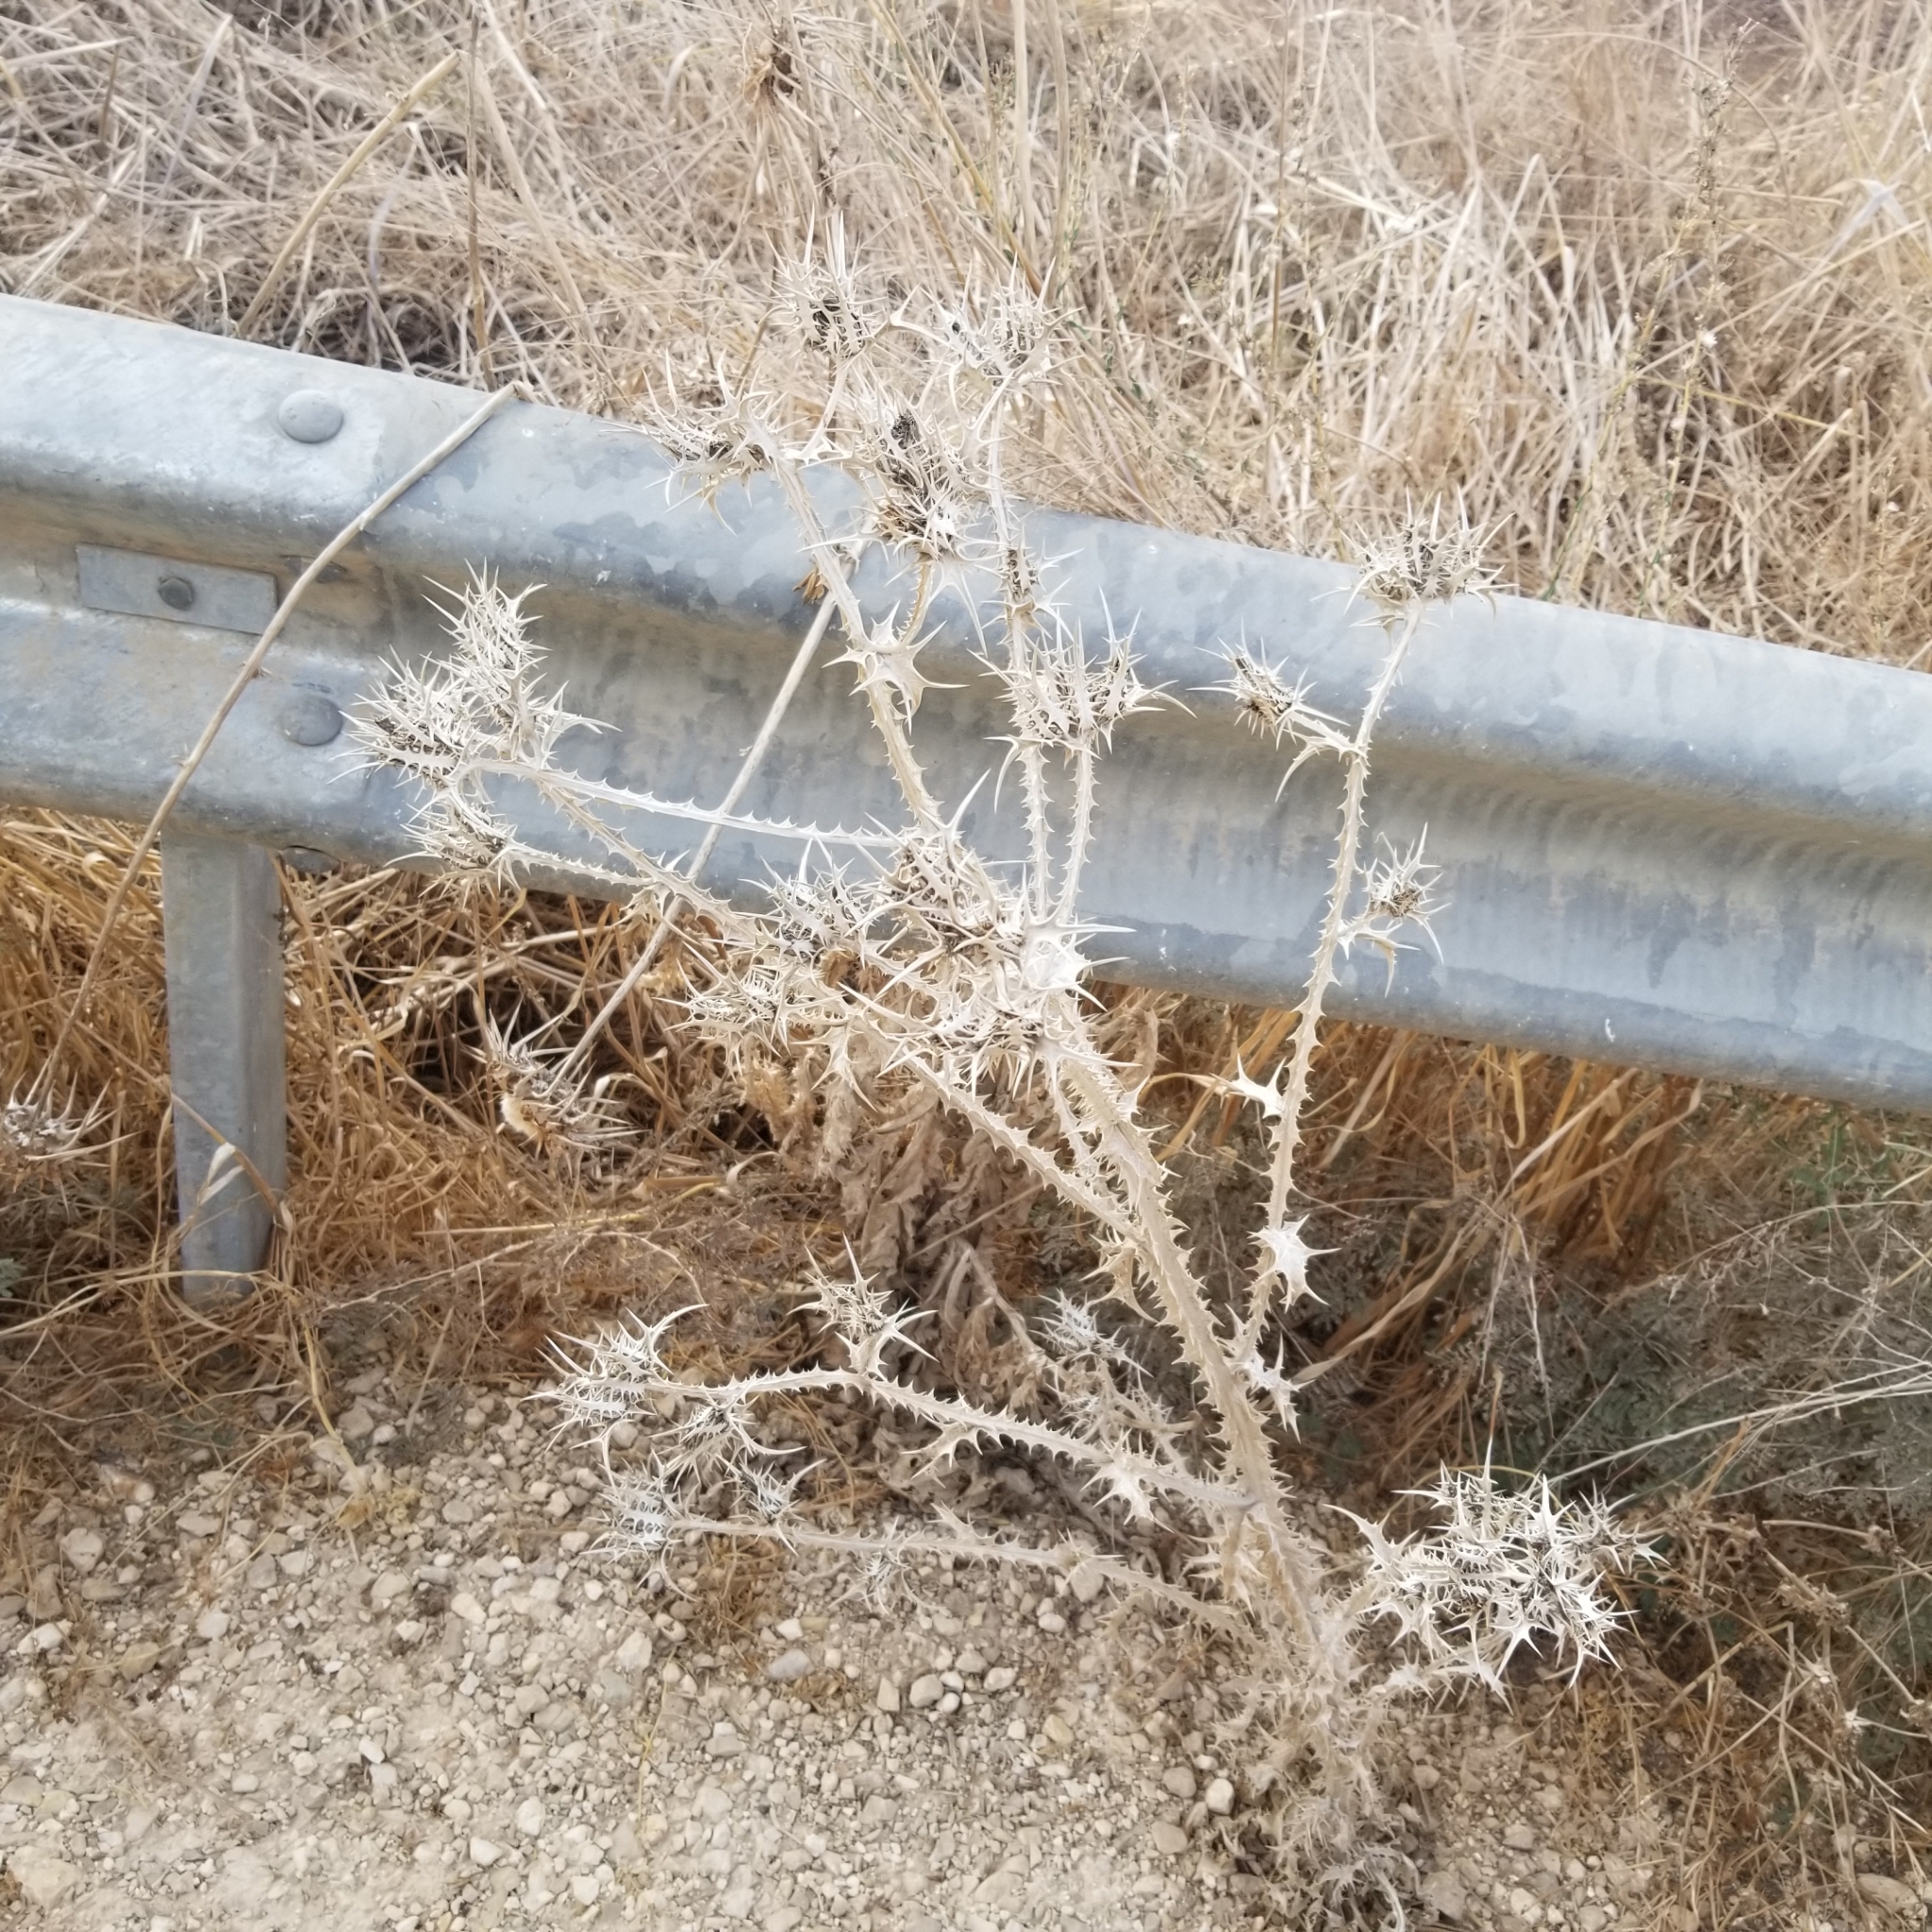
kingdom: Plantae
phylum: Tracheophyta
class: Magnoliopsida
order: Asterales
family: Asteraceae
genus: Scolymus
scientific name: Scolymus maculatus
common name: Spotted thistle
